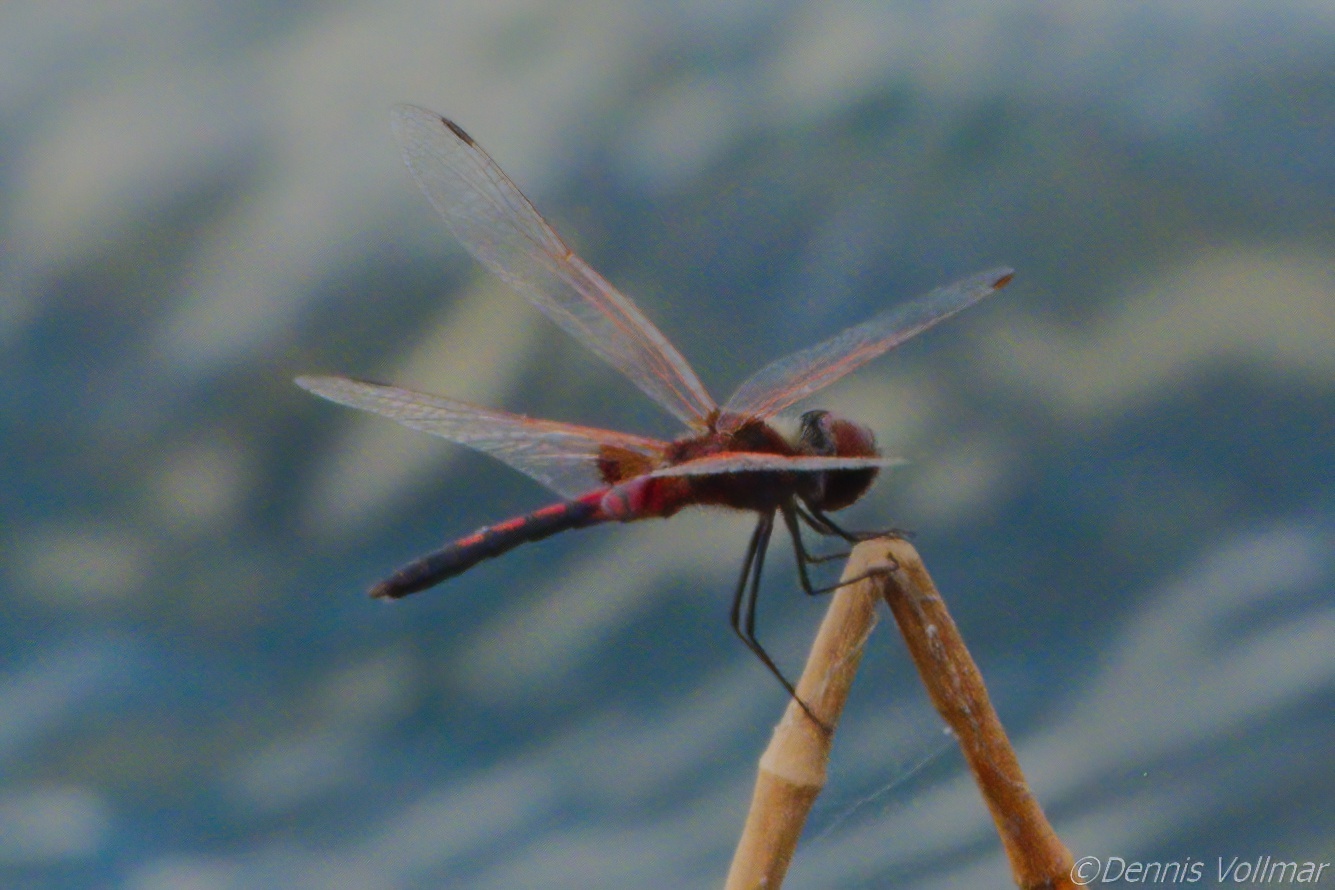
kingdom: Animalia
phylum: Arthropoda
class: Insecta
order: Odonata
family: Libellulidae
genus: Celithemis
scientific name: Celithemis bertha
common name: Red-veined pennant
